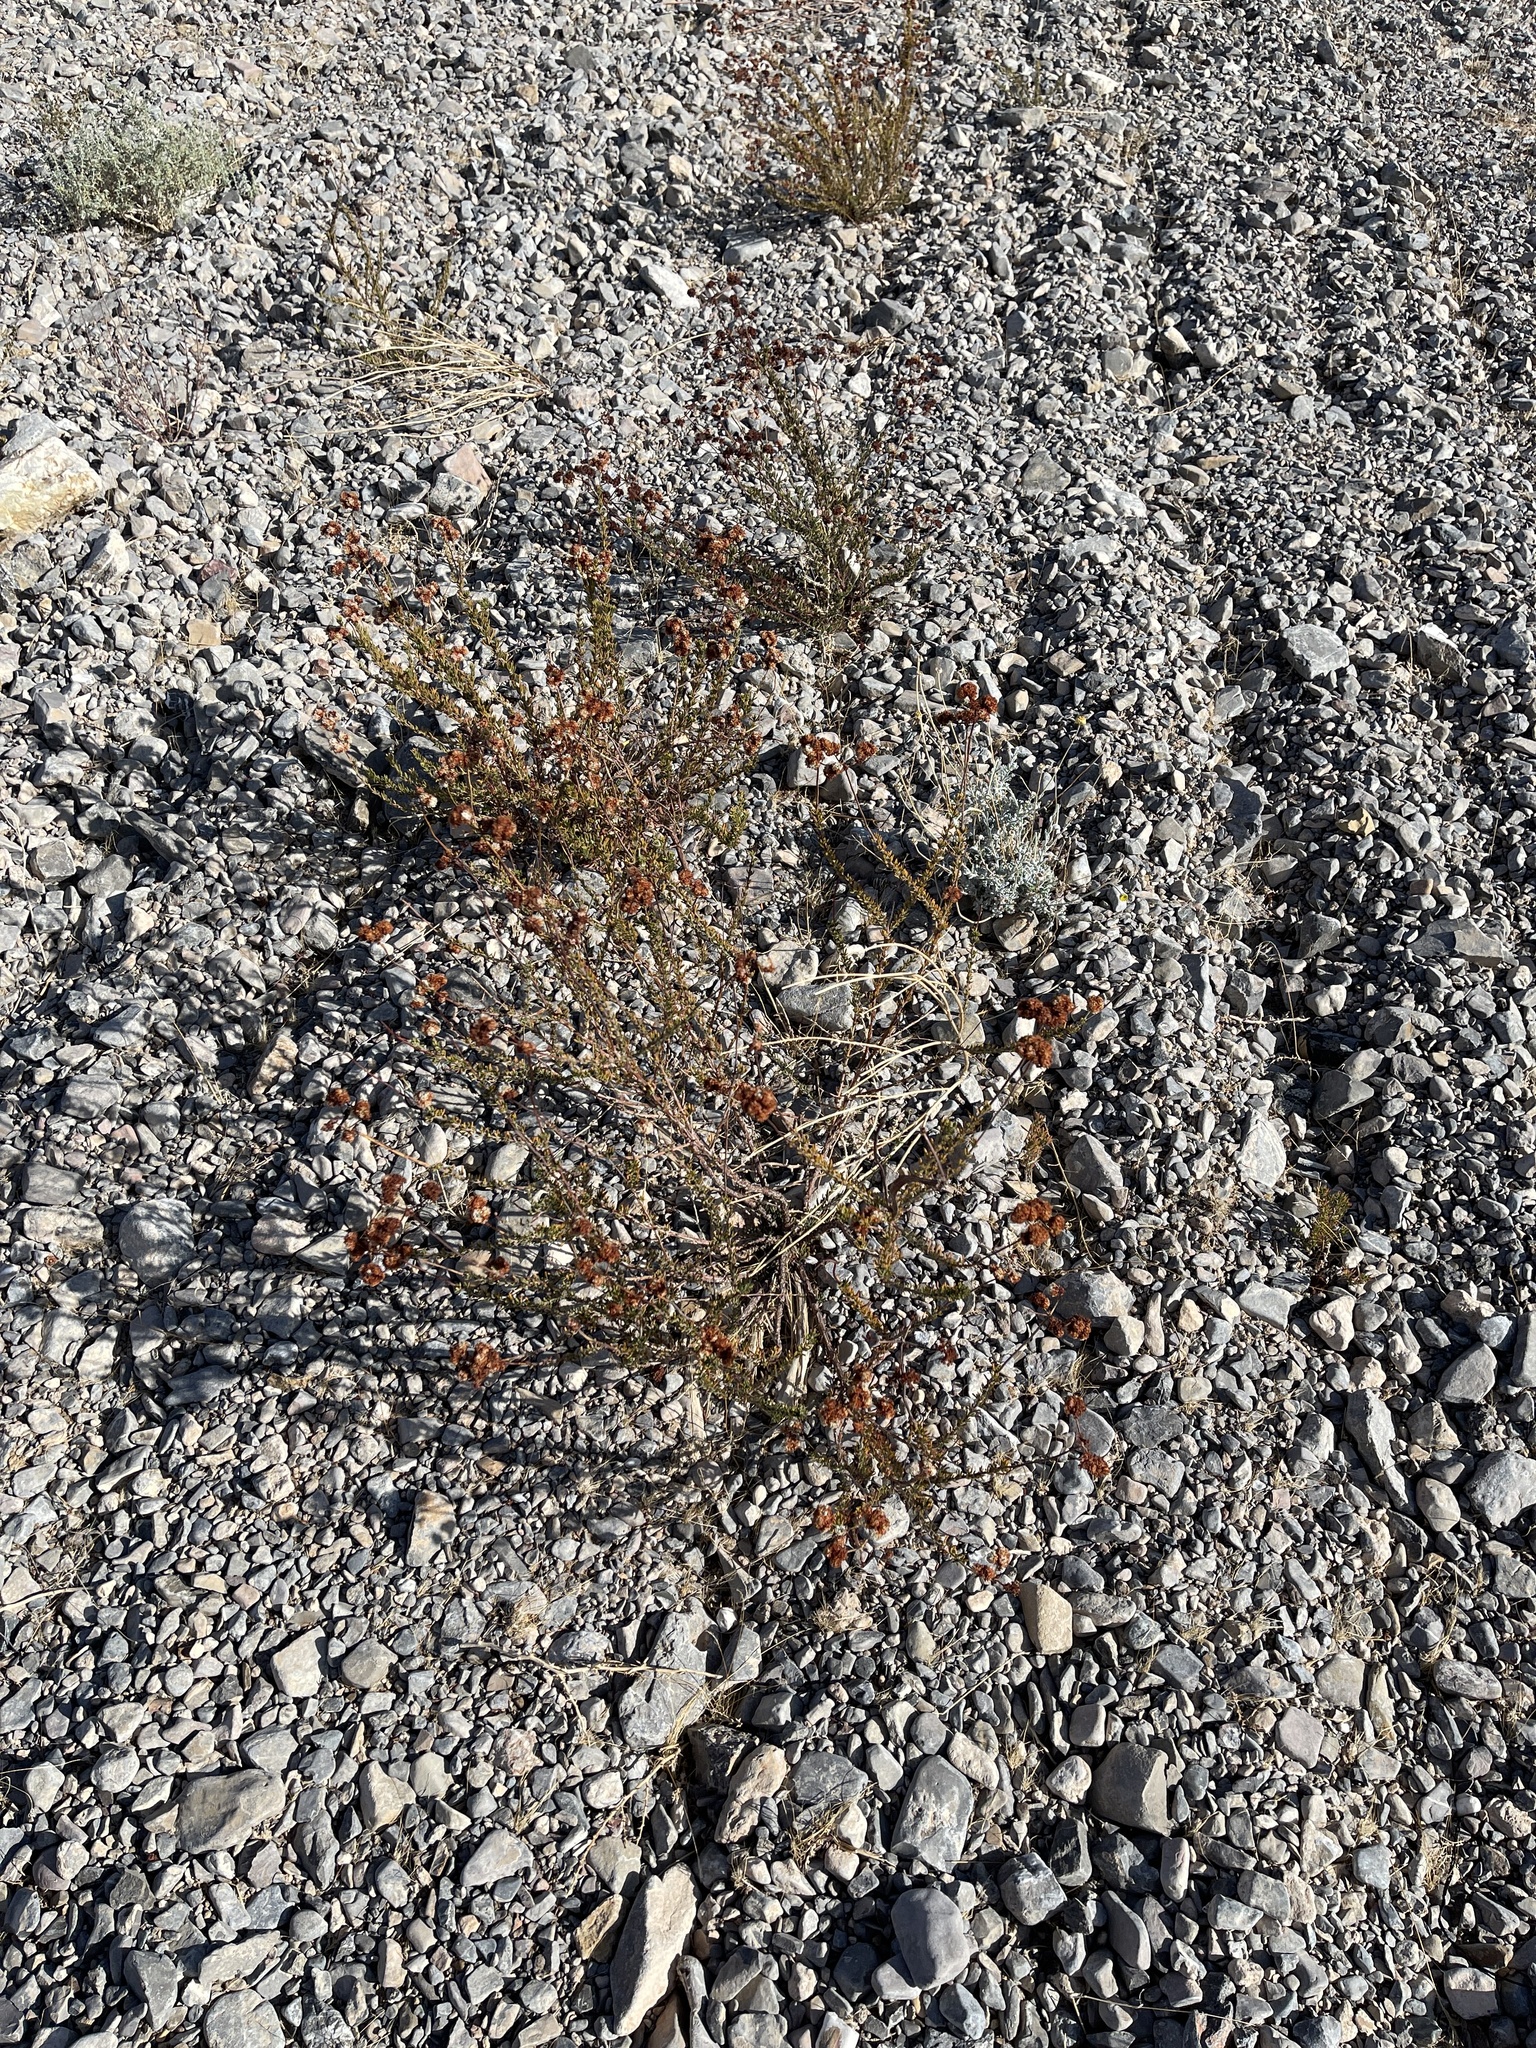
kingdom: Plantae
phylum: Tracheophyta
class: Magnoliopsida
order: Caryophyllales
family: Polygonaceae
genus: Eriogonum
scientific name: Eriogonum fasciculatum
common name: California wild buckwheat
